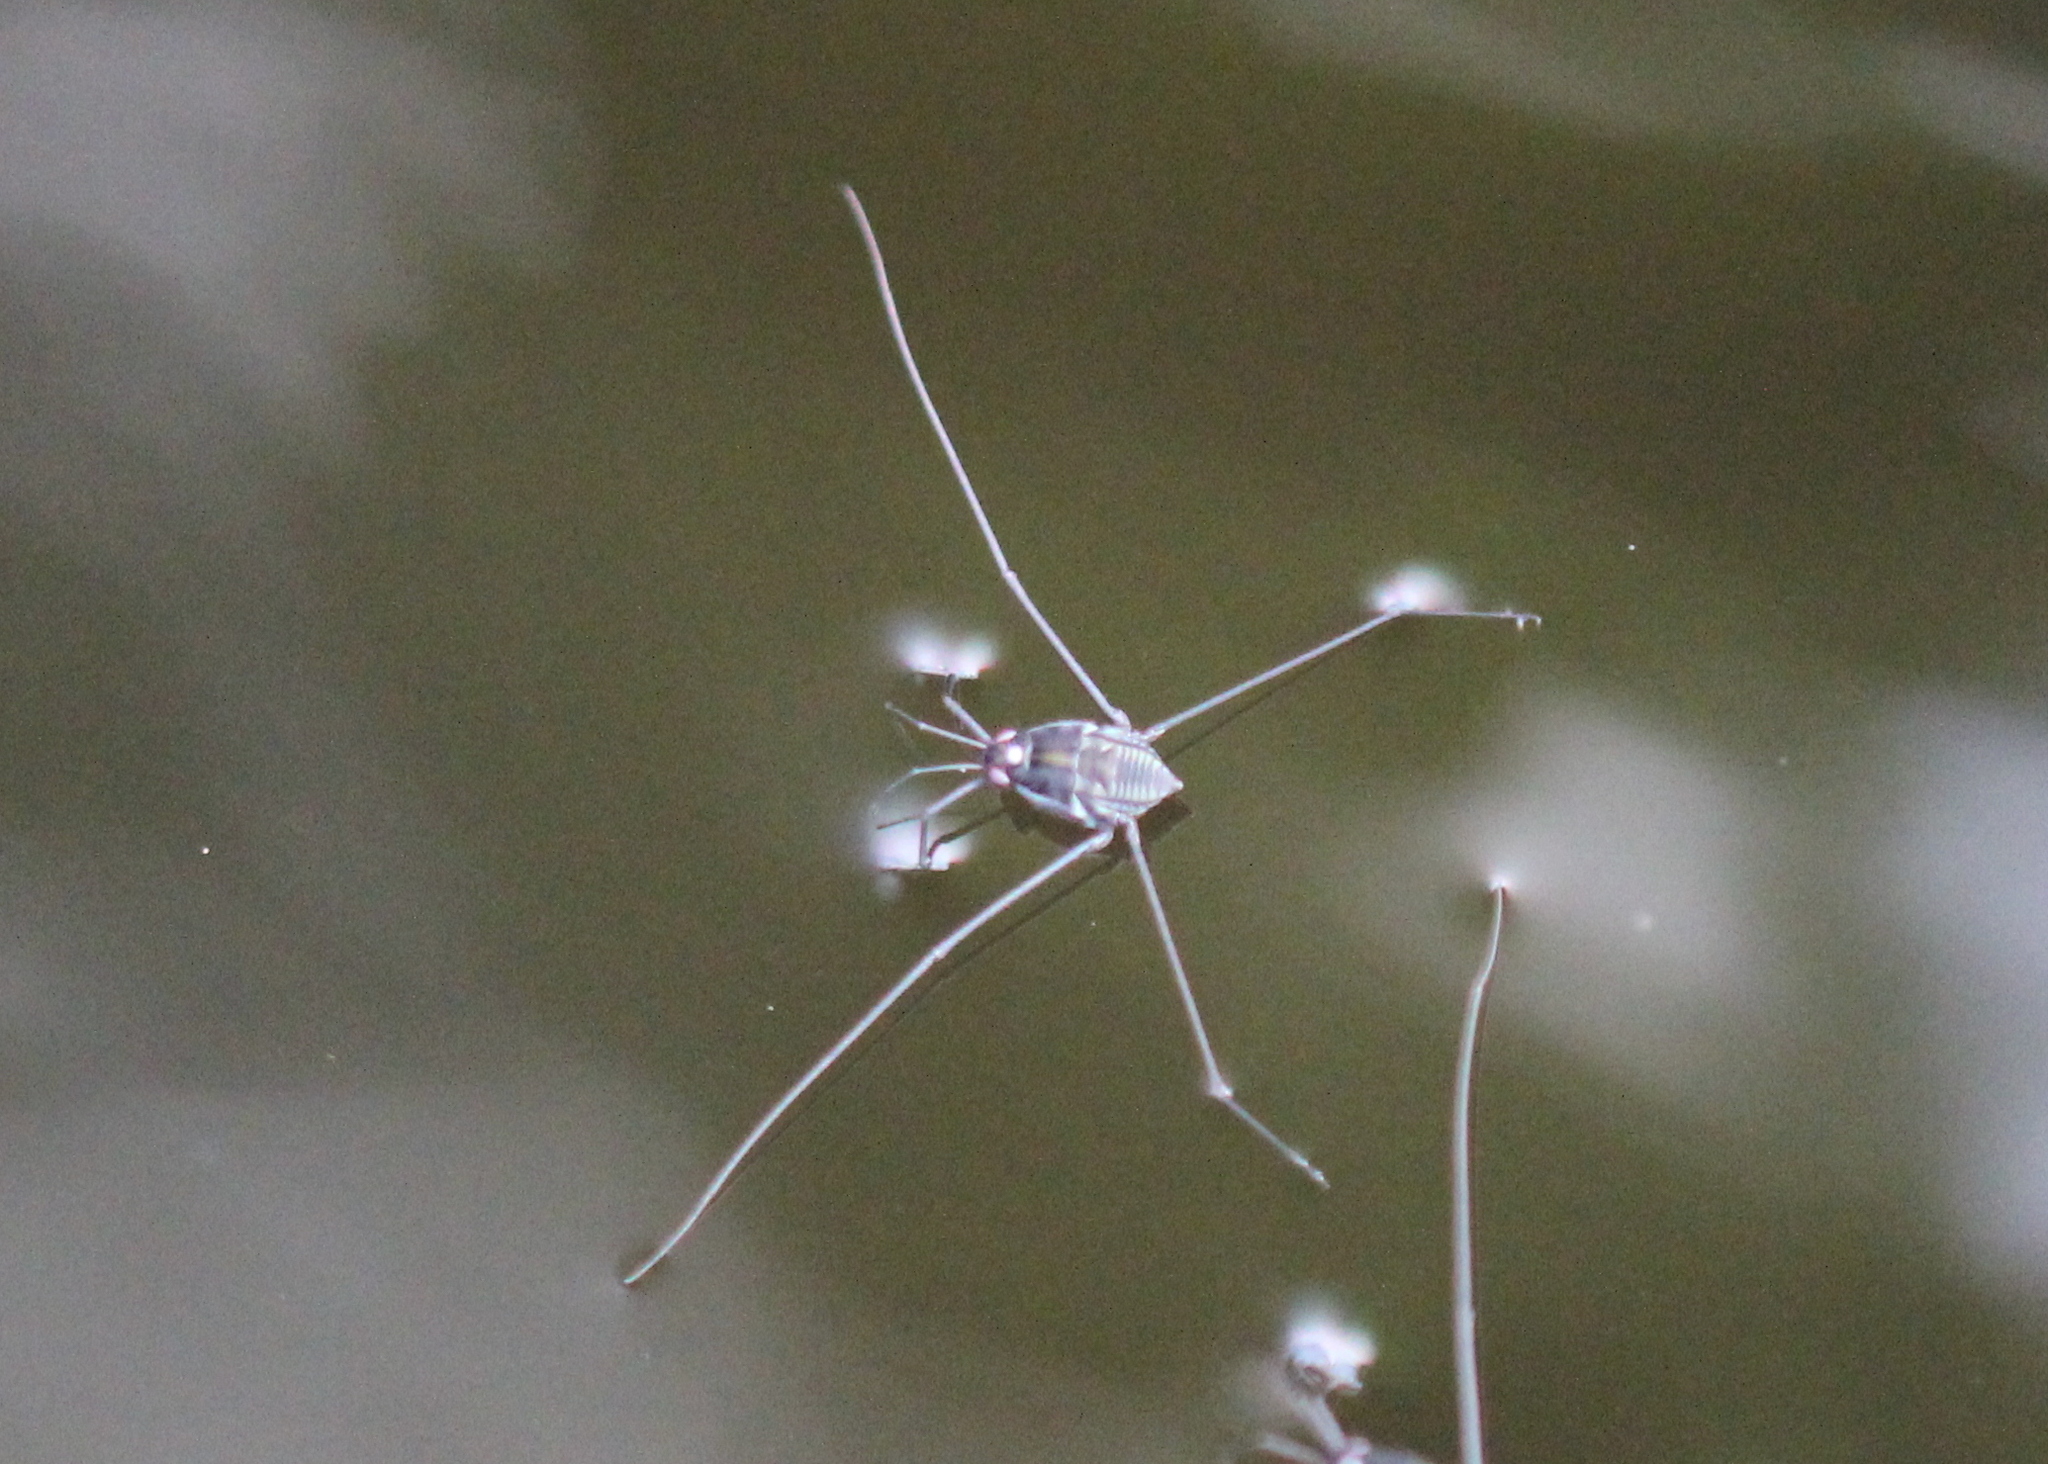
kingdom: Animalia
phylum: Arthropoda
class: Insecta
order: Hemiptera
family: Gerridae
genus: Metrobates
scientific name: Metrobates hesperius
